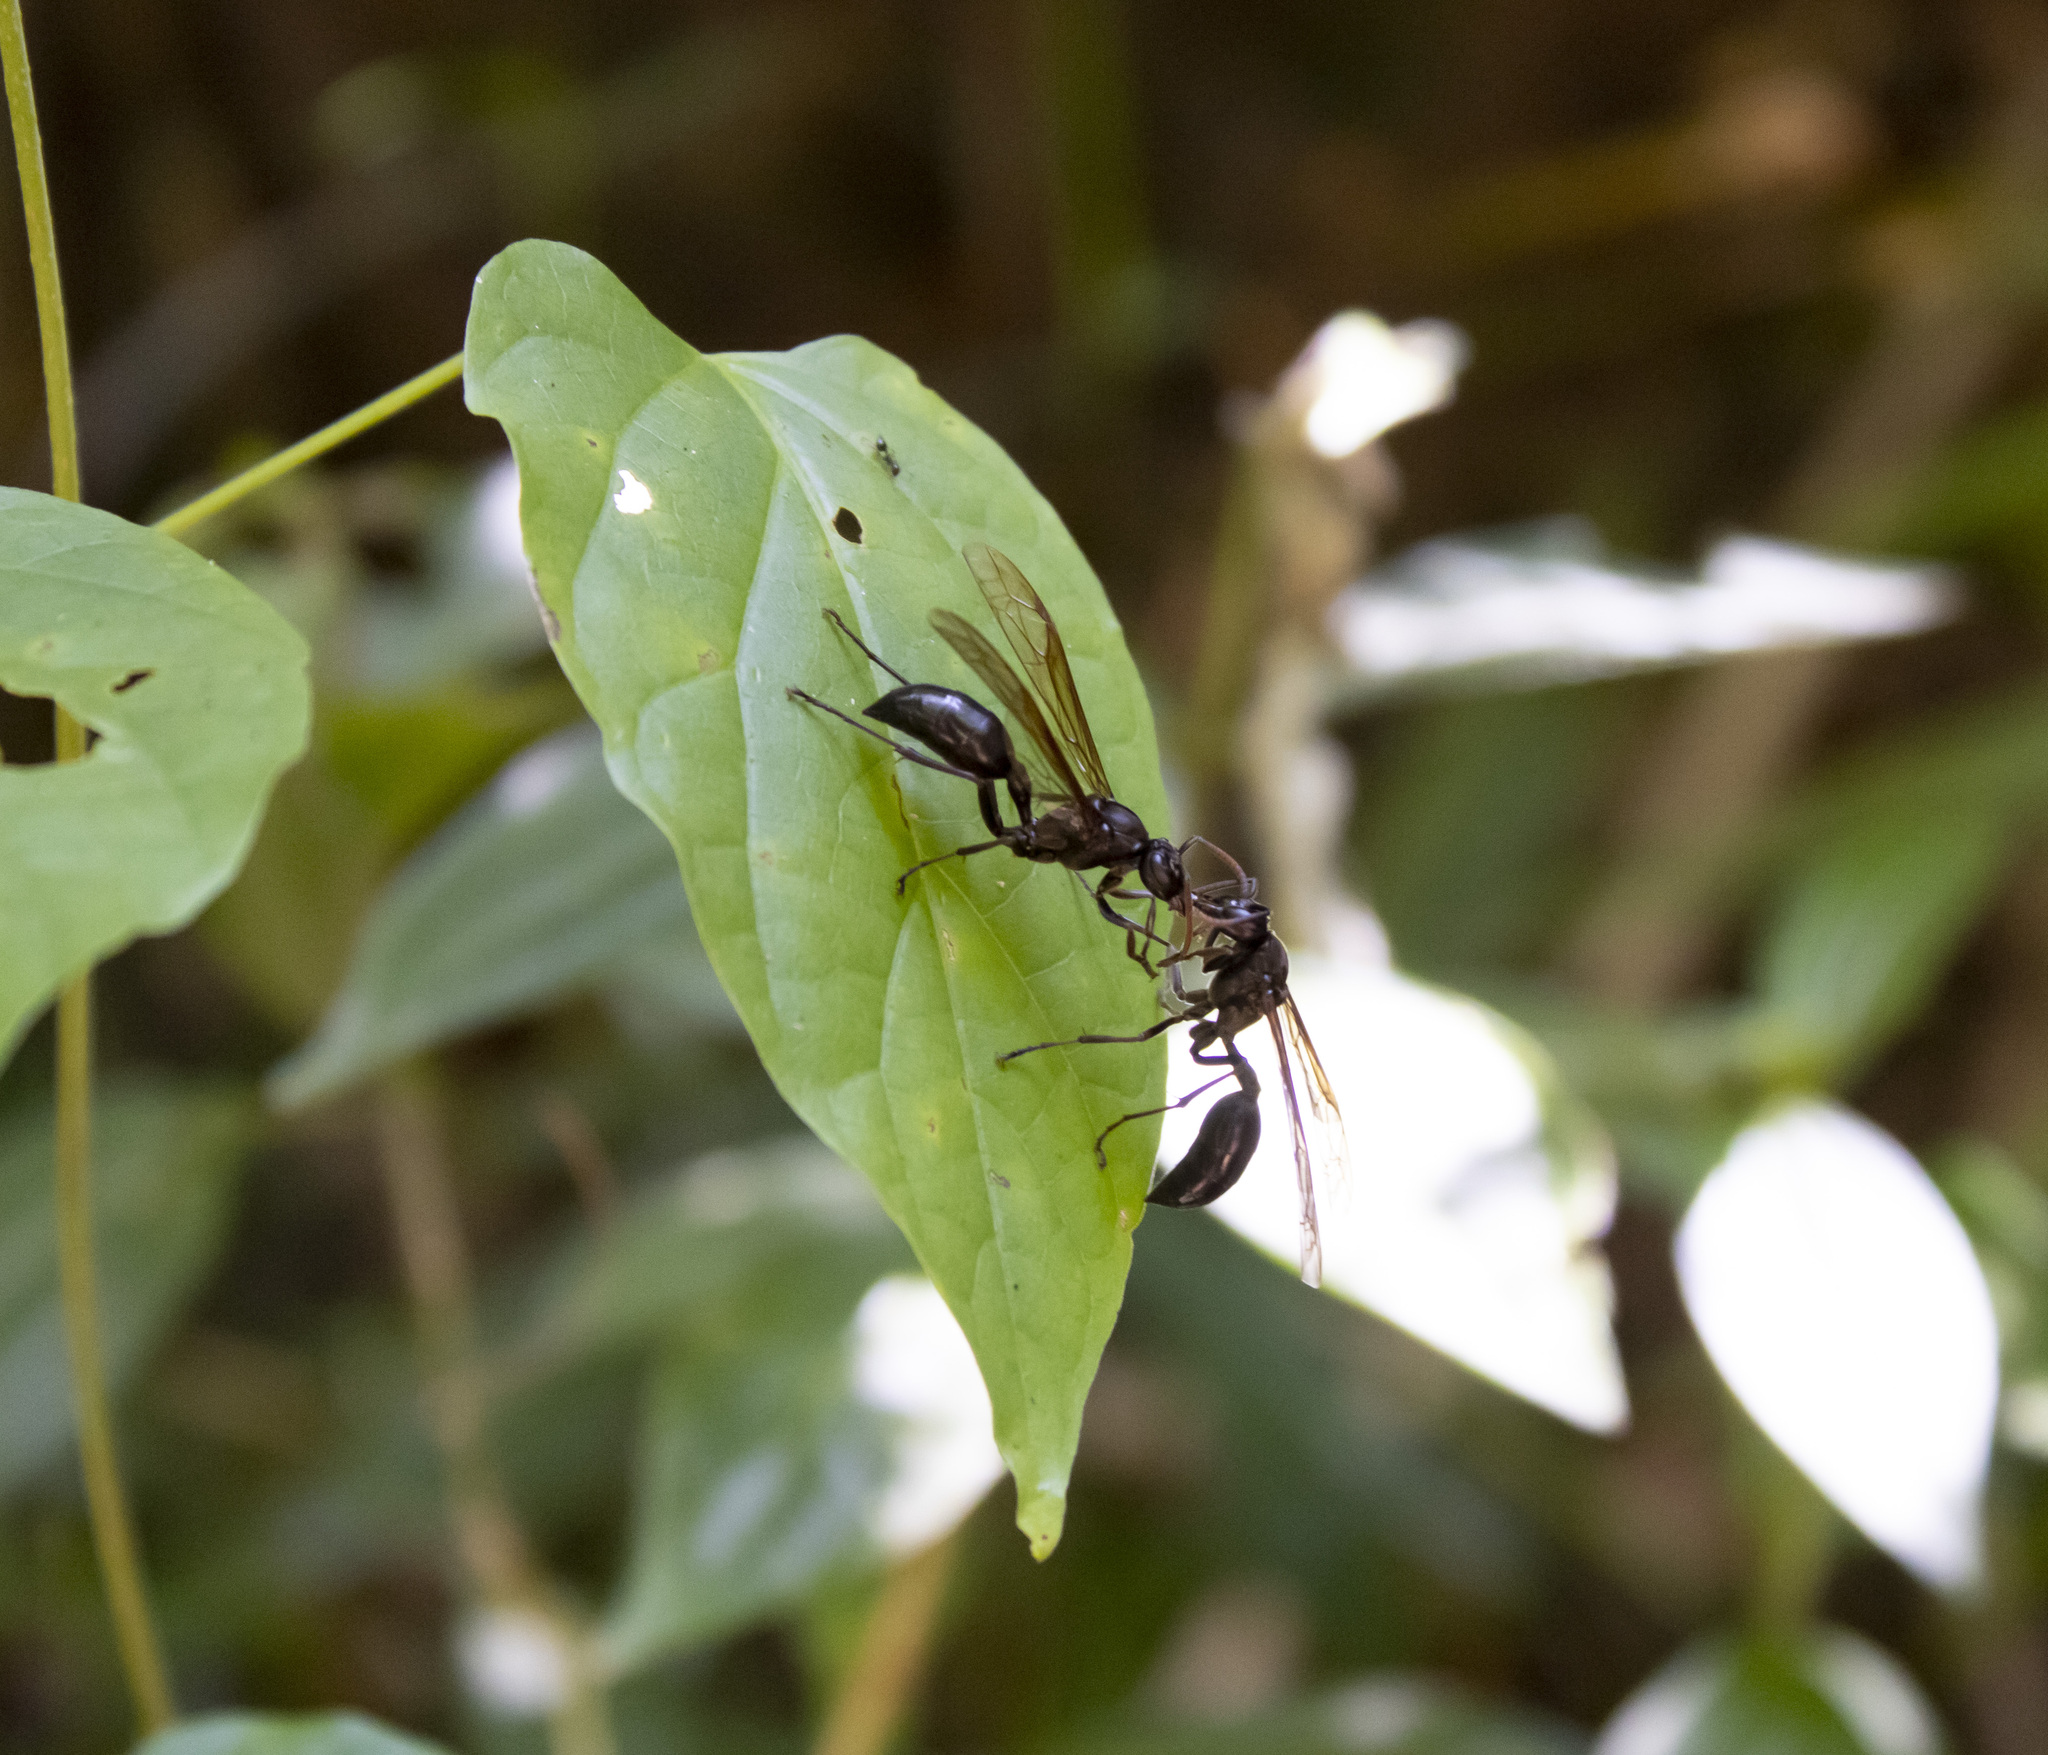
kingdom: Animalia
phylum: Arthropoda
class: Insecta
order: Hymenoptera
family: Vespidae
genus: Agelaia
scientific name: Agelaia angulata
